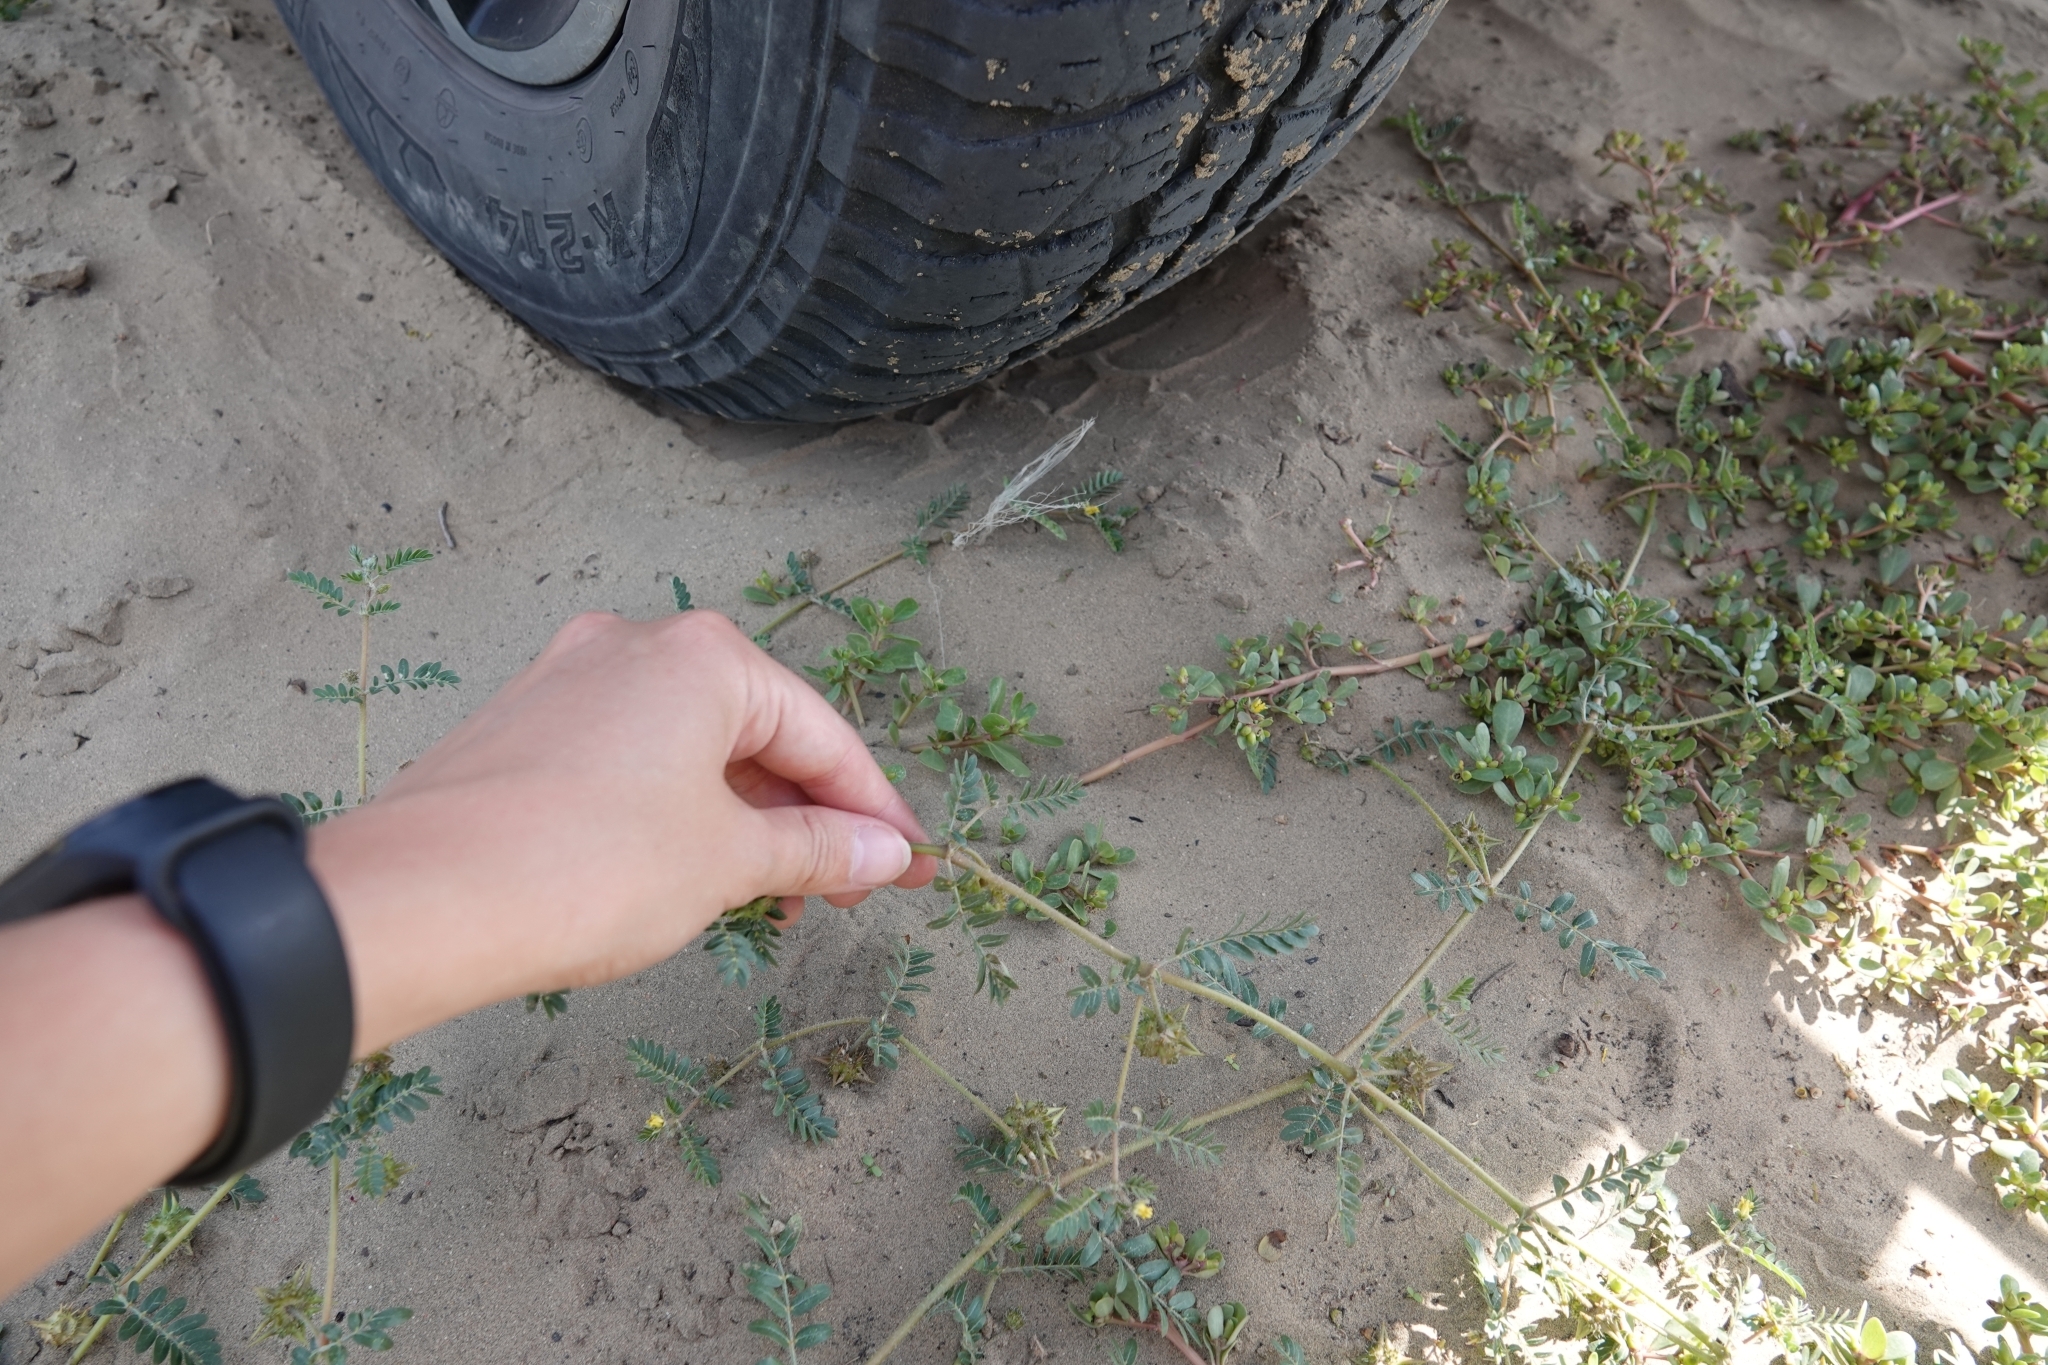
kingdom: Plantae
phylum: Tracheophyta
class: Magnoliopsida
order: Zygophyllales
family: Zygophyllaceae
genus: Tribulus
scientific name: Tribulus terrestris
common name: Puncturevine
